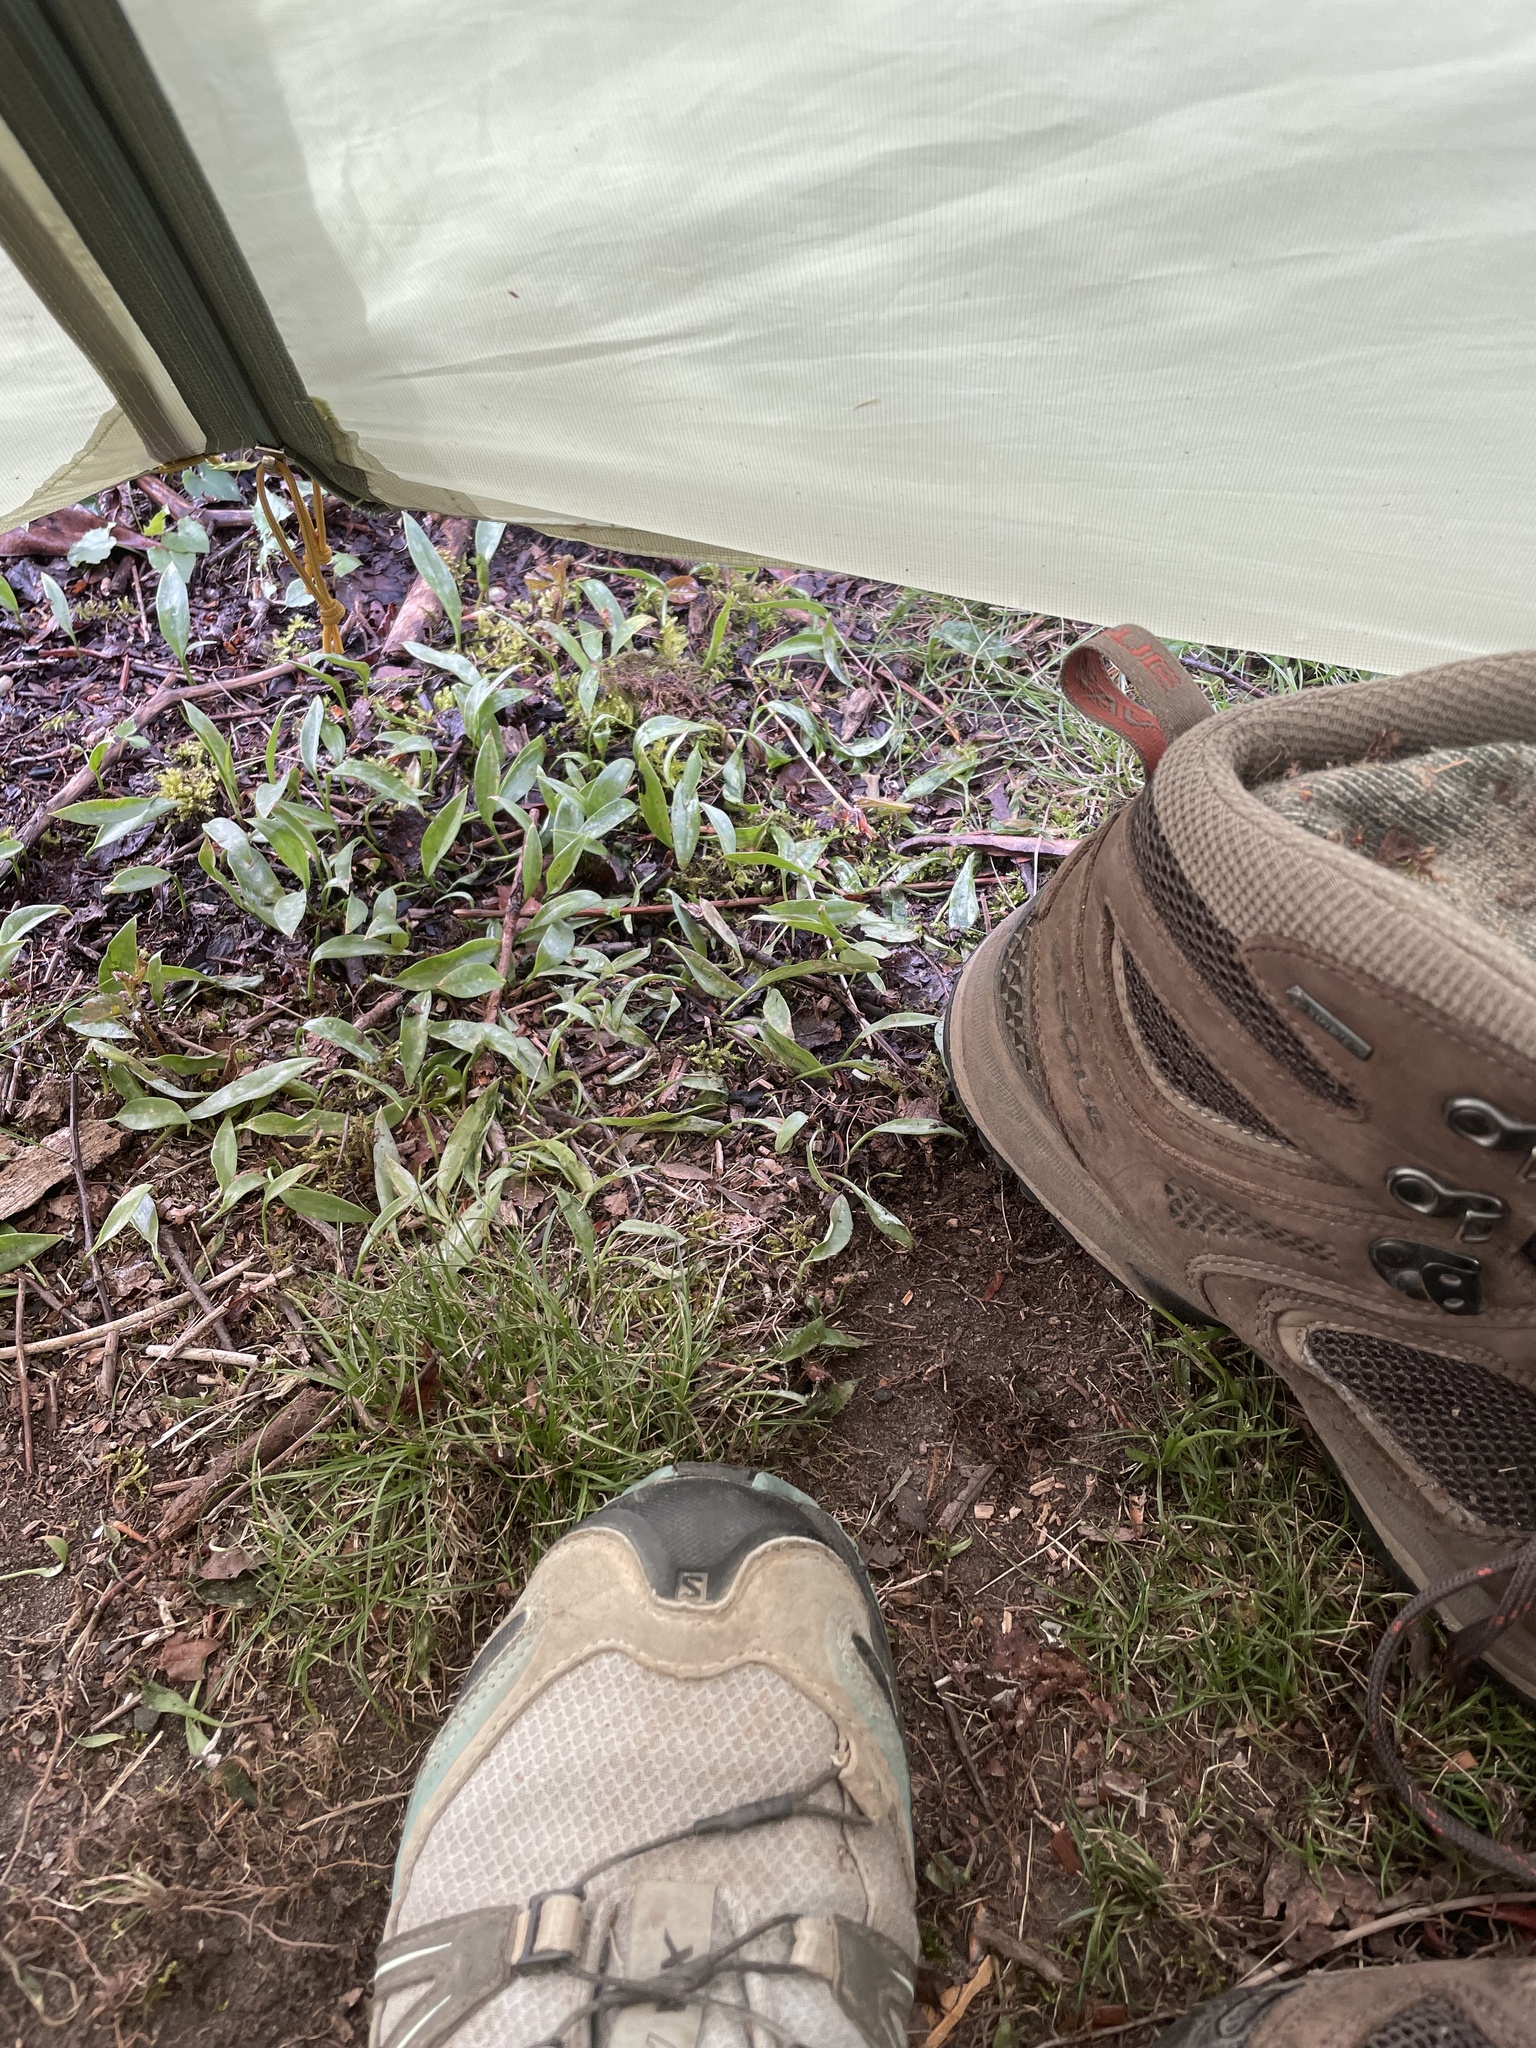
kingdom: Plantae
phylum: Tracheophyta
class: Liliopsida
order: Liliales
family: Liliaceae
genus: Erythronium
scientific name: Erythronium umbilicatum
